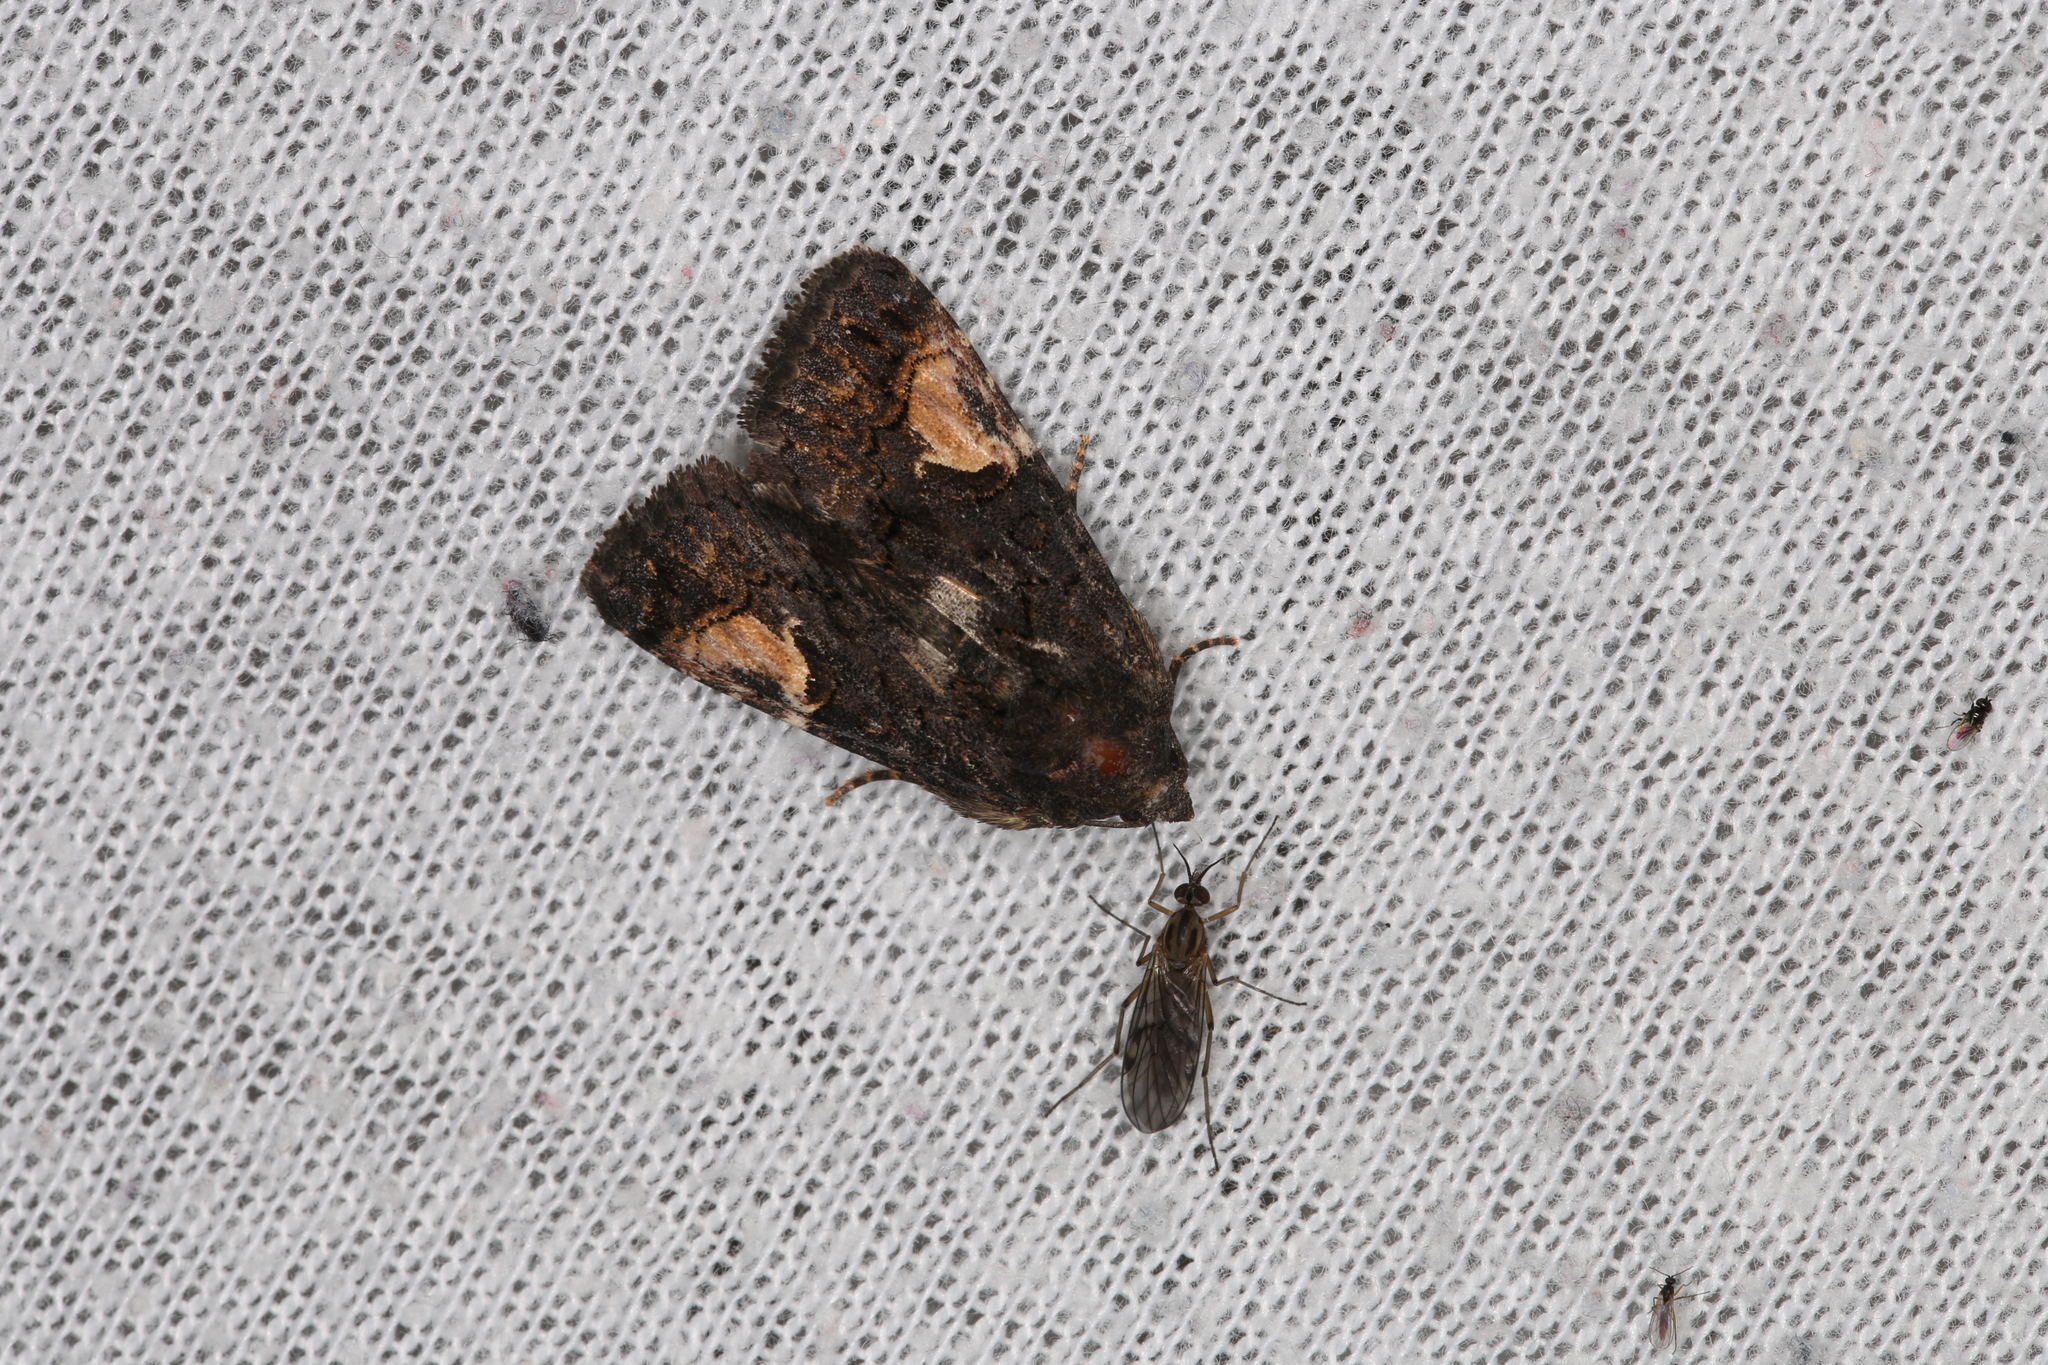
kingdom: Animalia
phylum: Arthropoda
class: Insecta
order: Lepidoptera
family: Noctuidae
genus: Aedia
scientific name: Aedia funesta
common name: The druid
